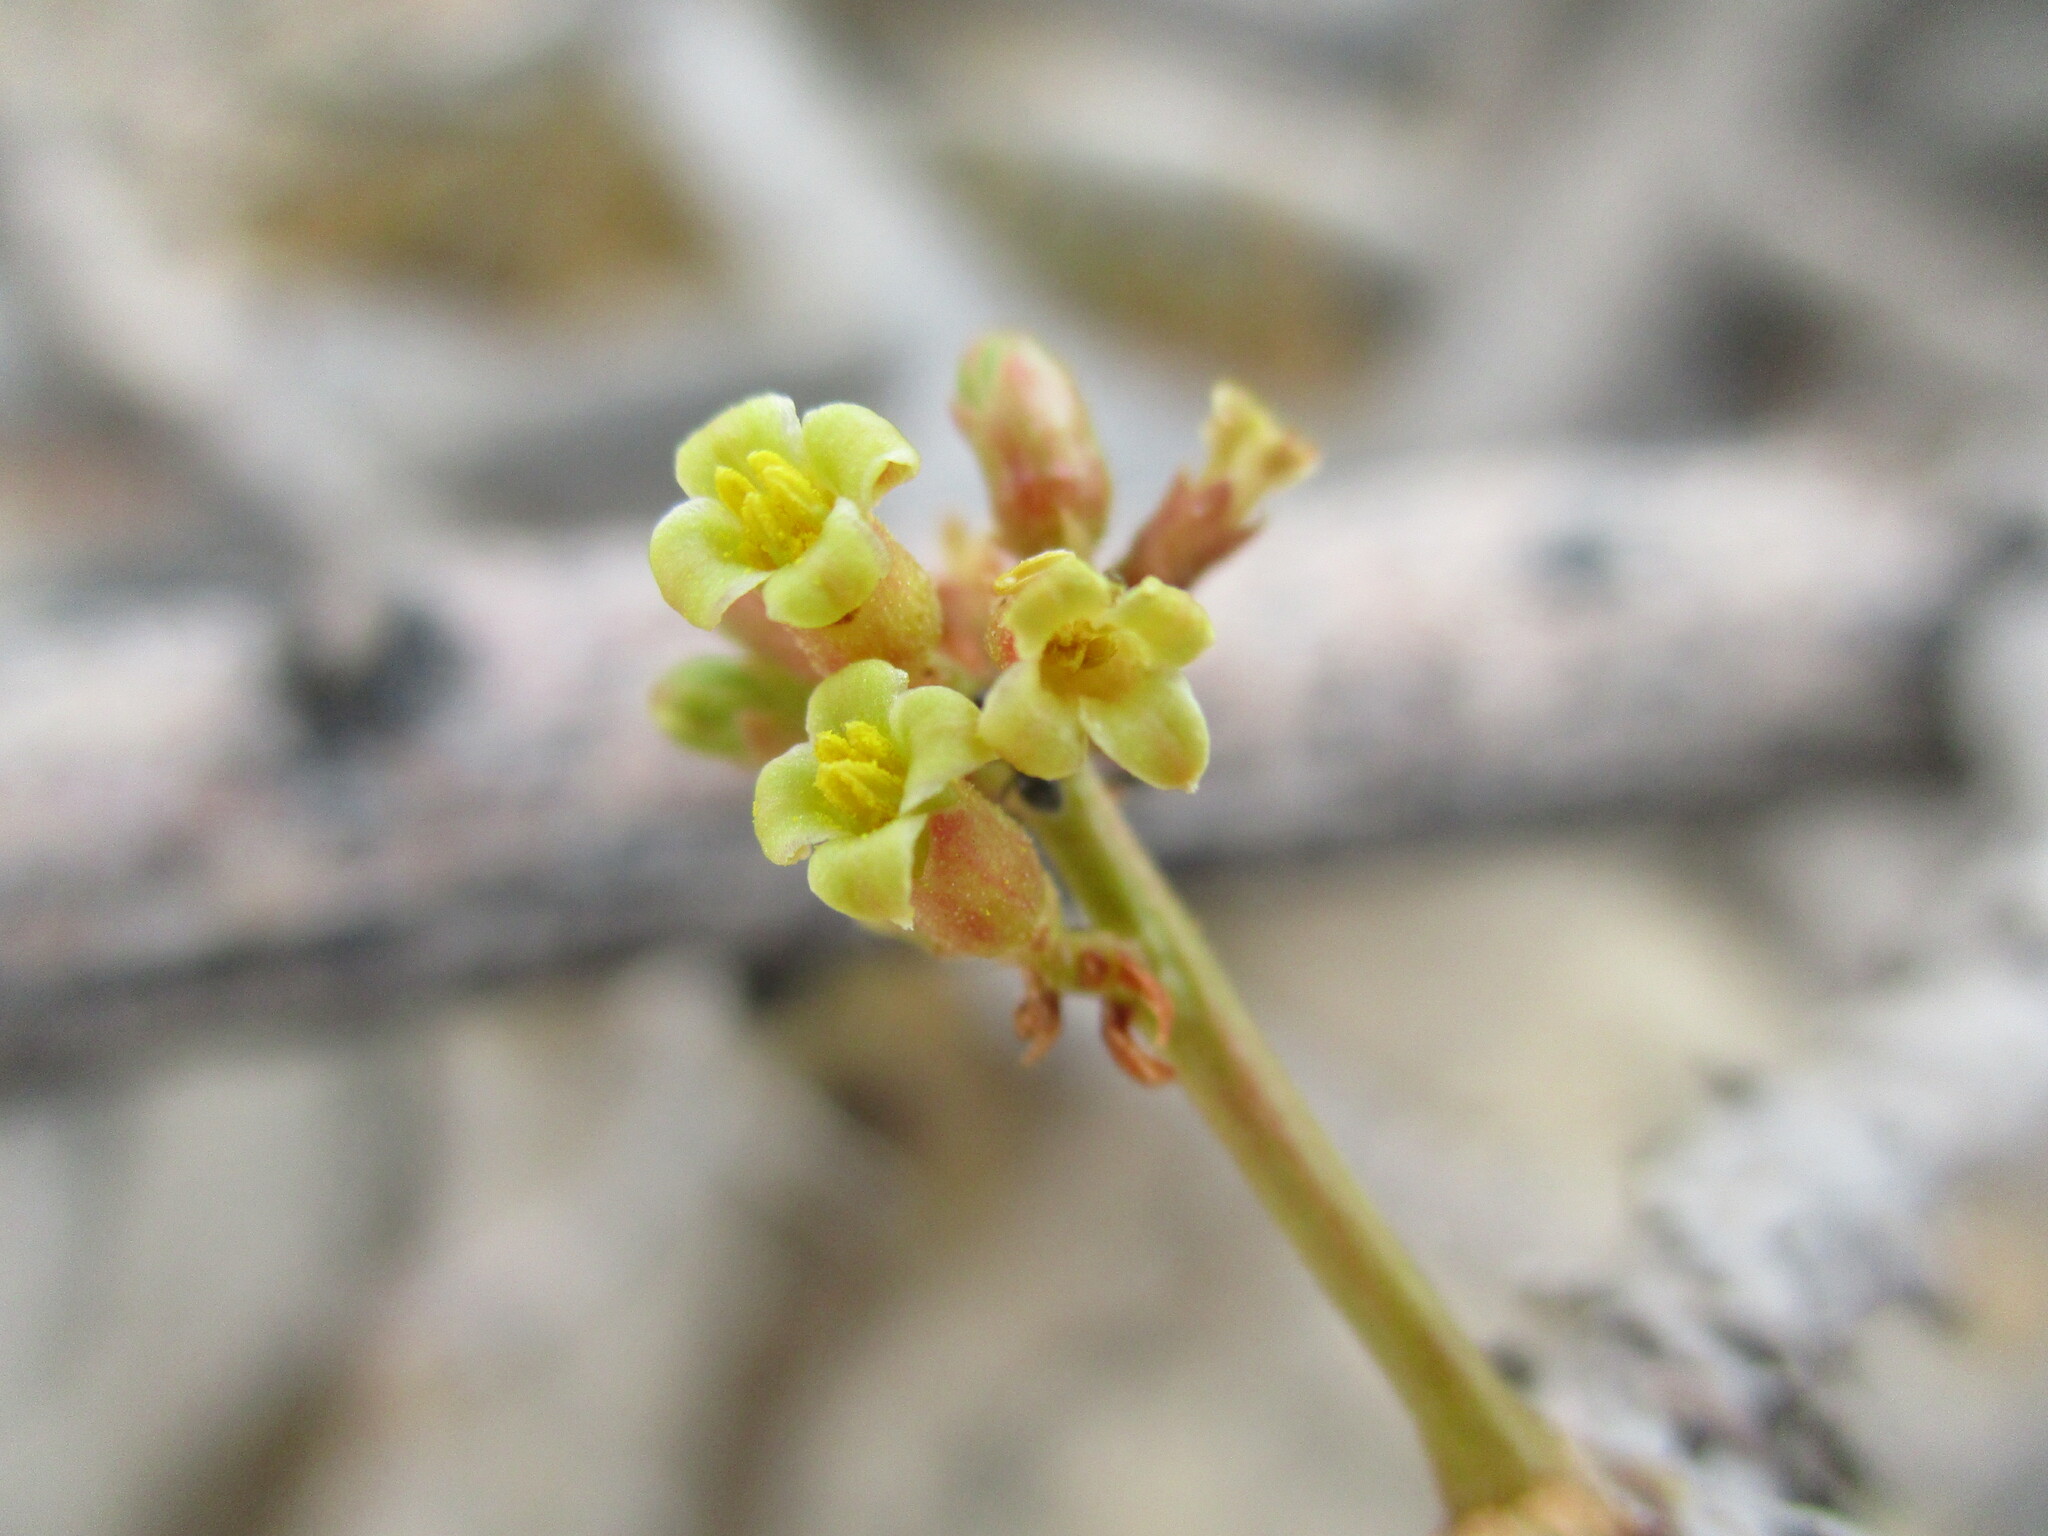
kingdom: Plantae
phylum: Tracheophyta
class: Magnoliopsida
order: Sapindales
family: Burseraceae
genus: Commiphora
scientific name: Commiphora saxicola
